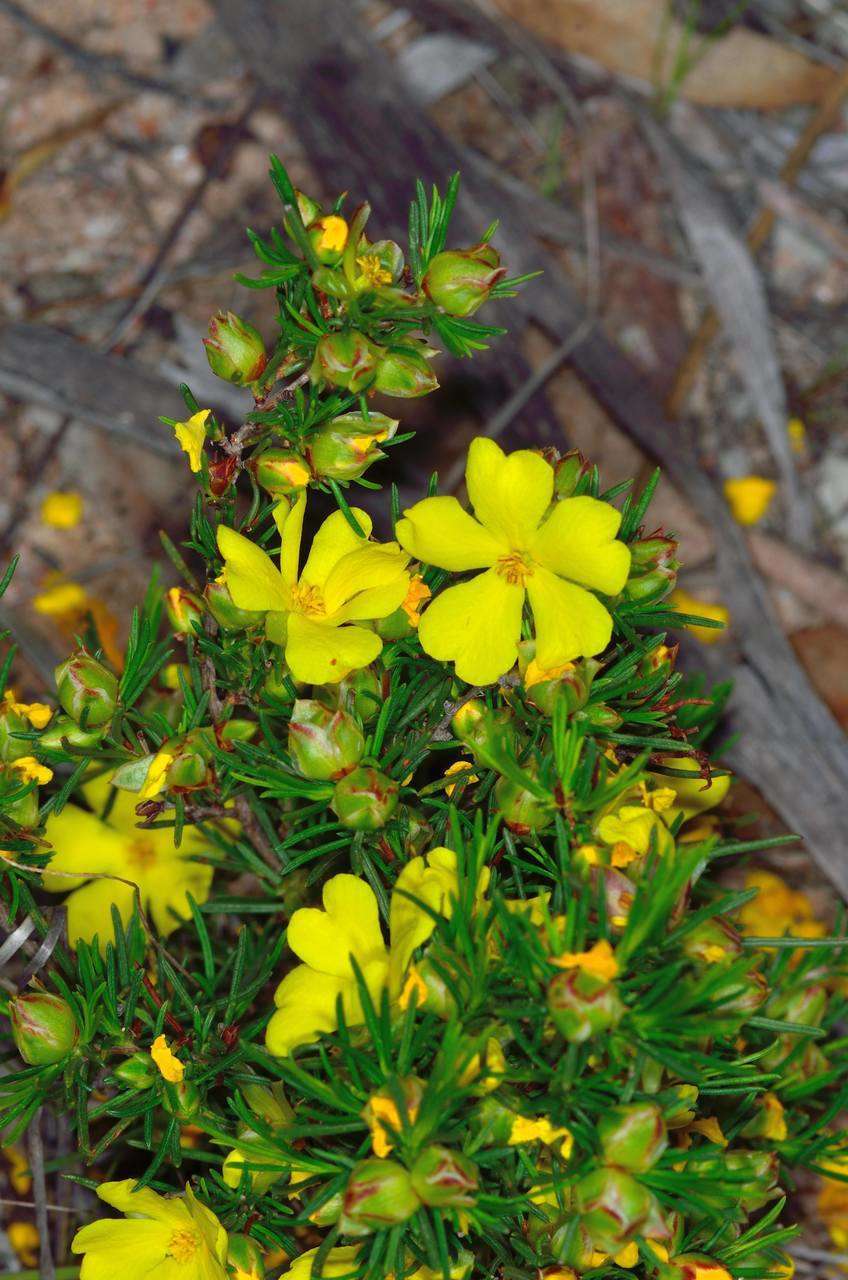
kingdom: Plantae
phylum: Tracheophyta
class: Magnoliopsida
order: Dilleniales
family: Dilleniaceae
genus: Hibbertia
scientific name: Hibbertia virgata
